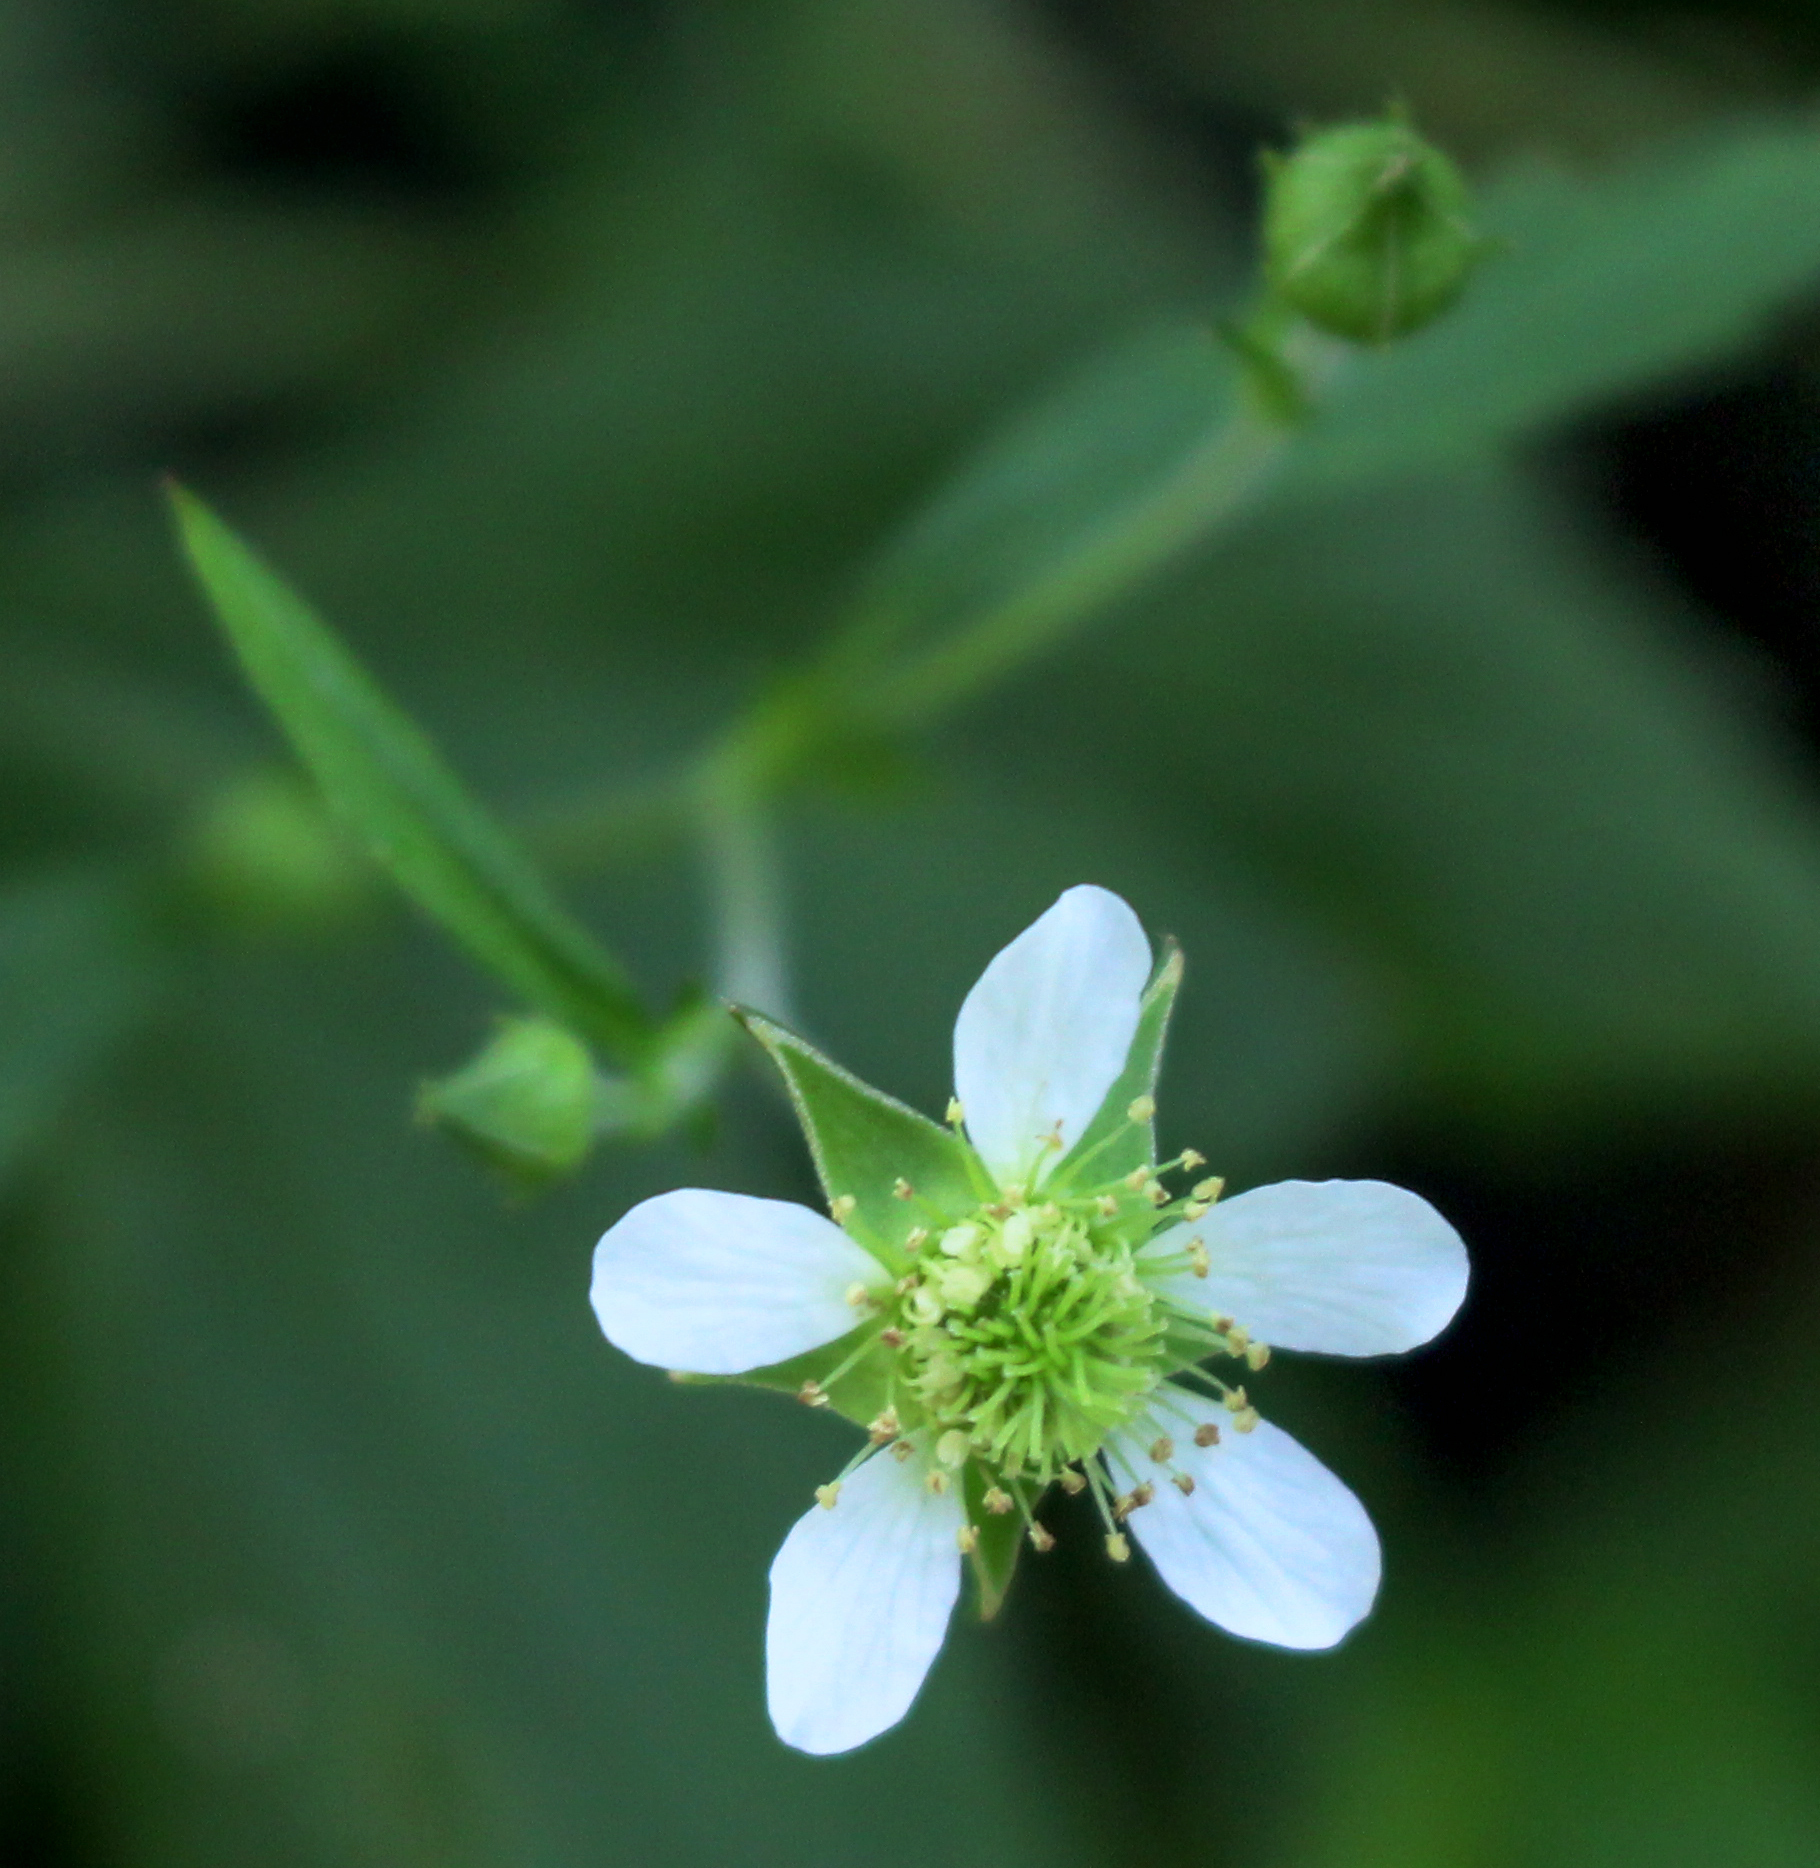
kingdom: Plantae
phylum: Tracheophyta
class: Magnoliopsida
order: Rosales
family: Rosaceae
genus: Geum
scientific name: Geum canadense
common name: White avens
